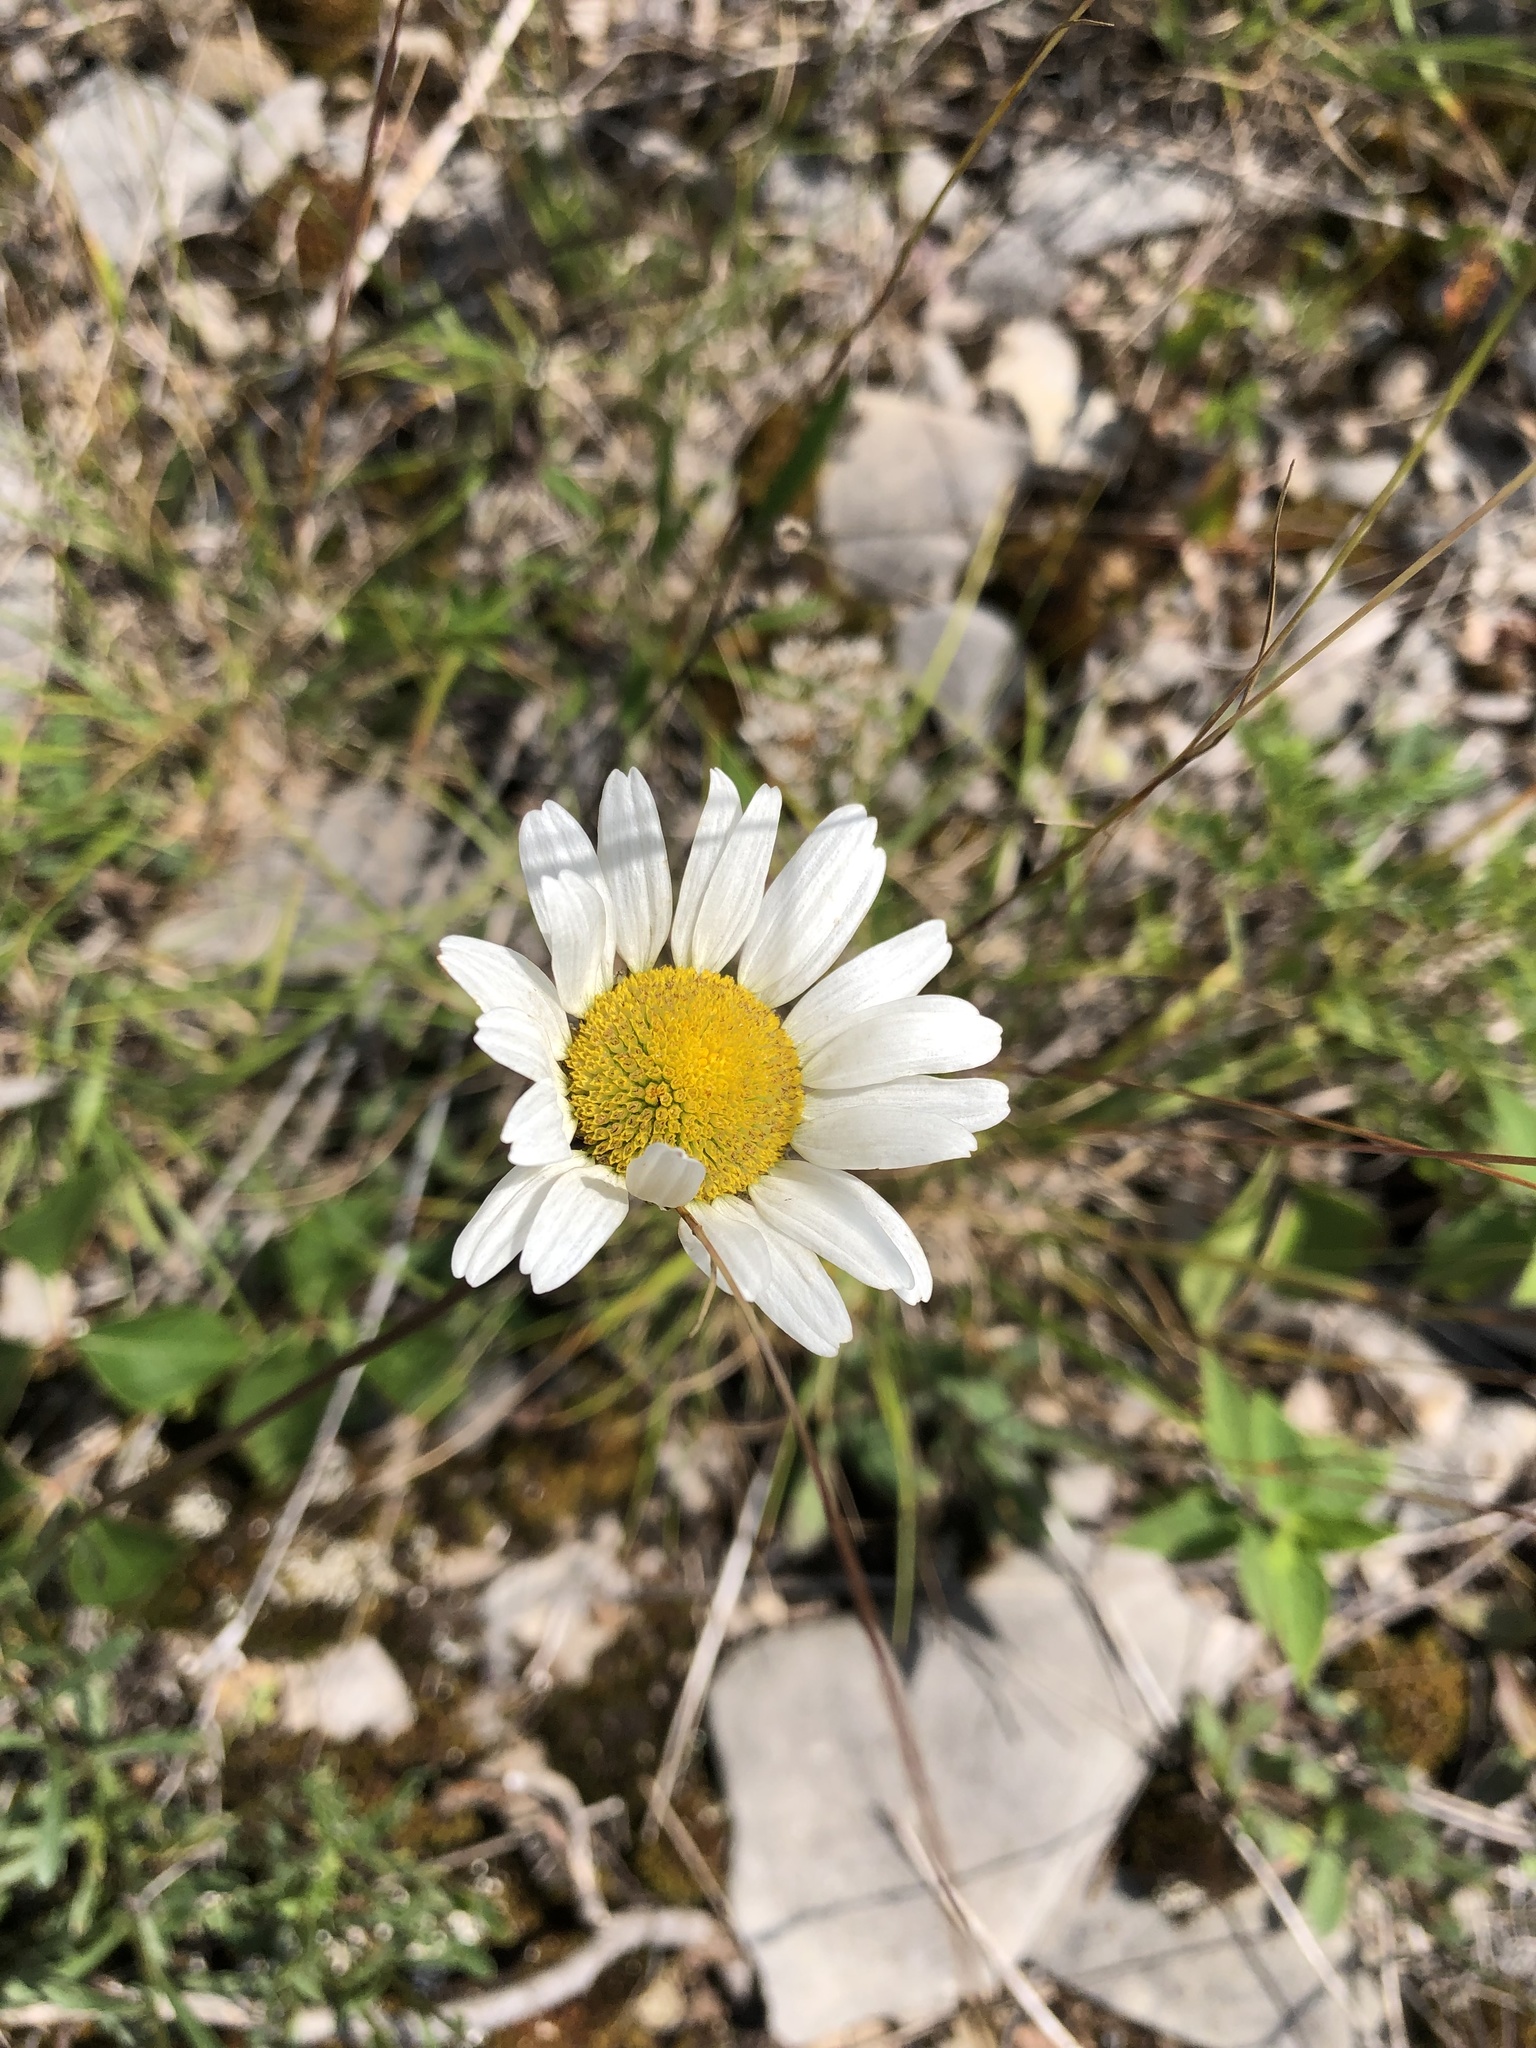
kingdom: Plantae
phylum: Tracheophyta
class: Magnoliopsida
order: Asterales
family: Asteraceae
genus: Leucanthemum
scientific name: Leucanthemum vulgare
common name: Oxeye daisy
